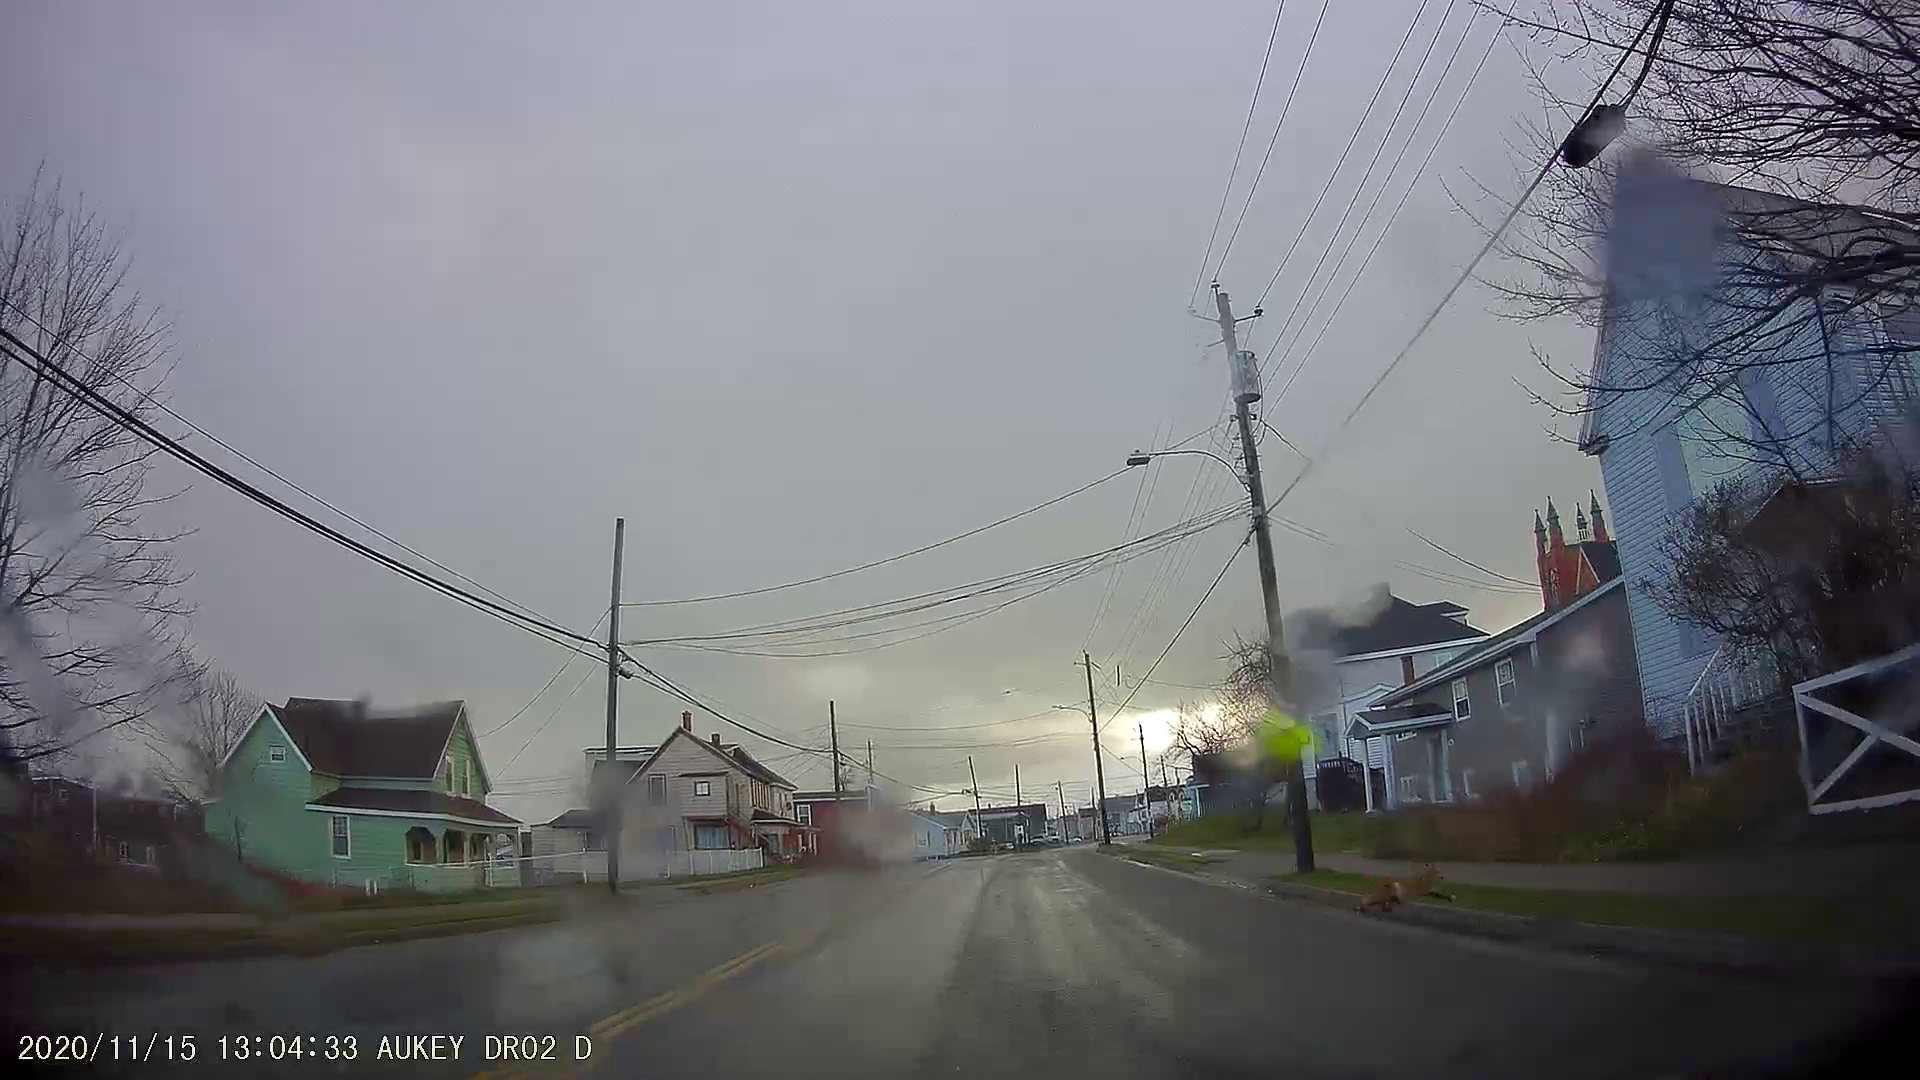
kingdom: Animalia
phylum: Chordata
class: Mammalia
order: Carnivora
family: Canidae
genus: Vulpes
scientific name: Vulpes vulpes
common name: Red fox
